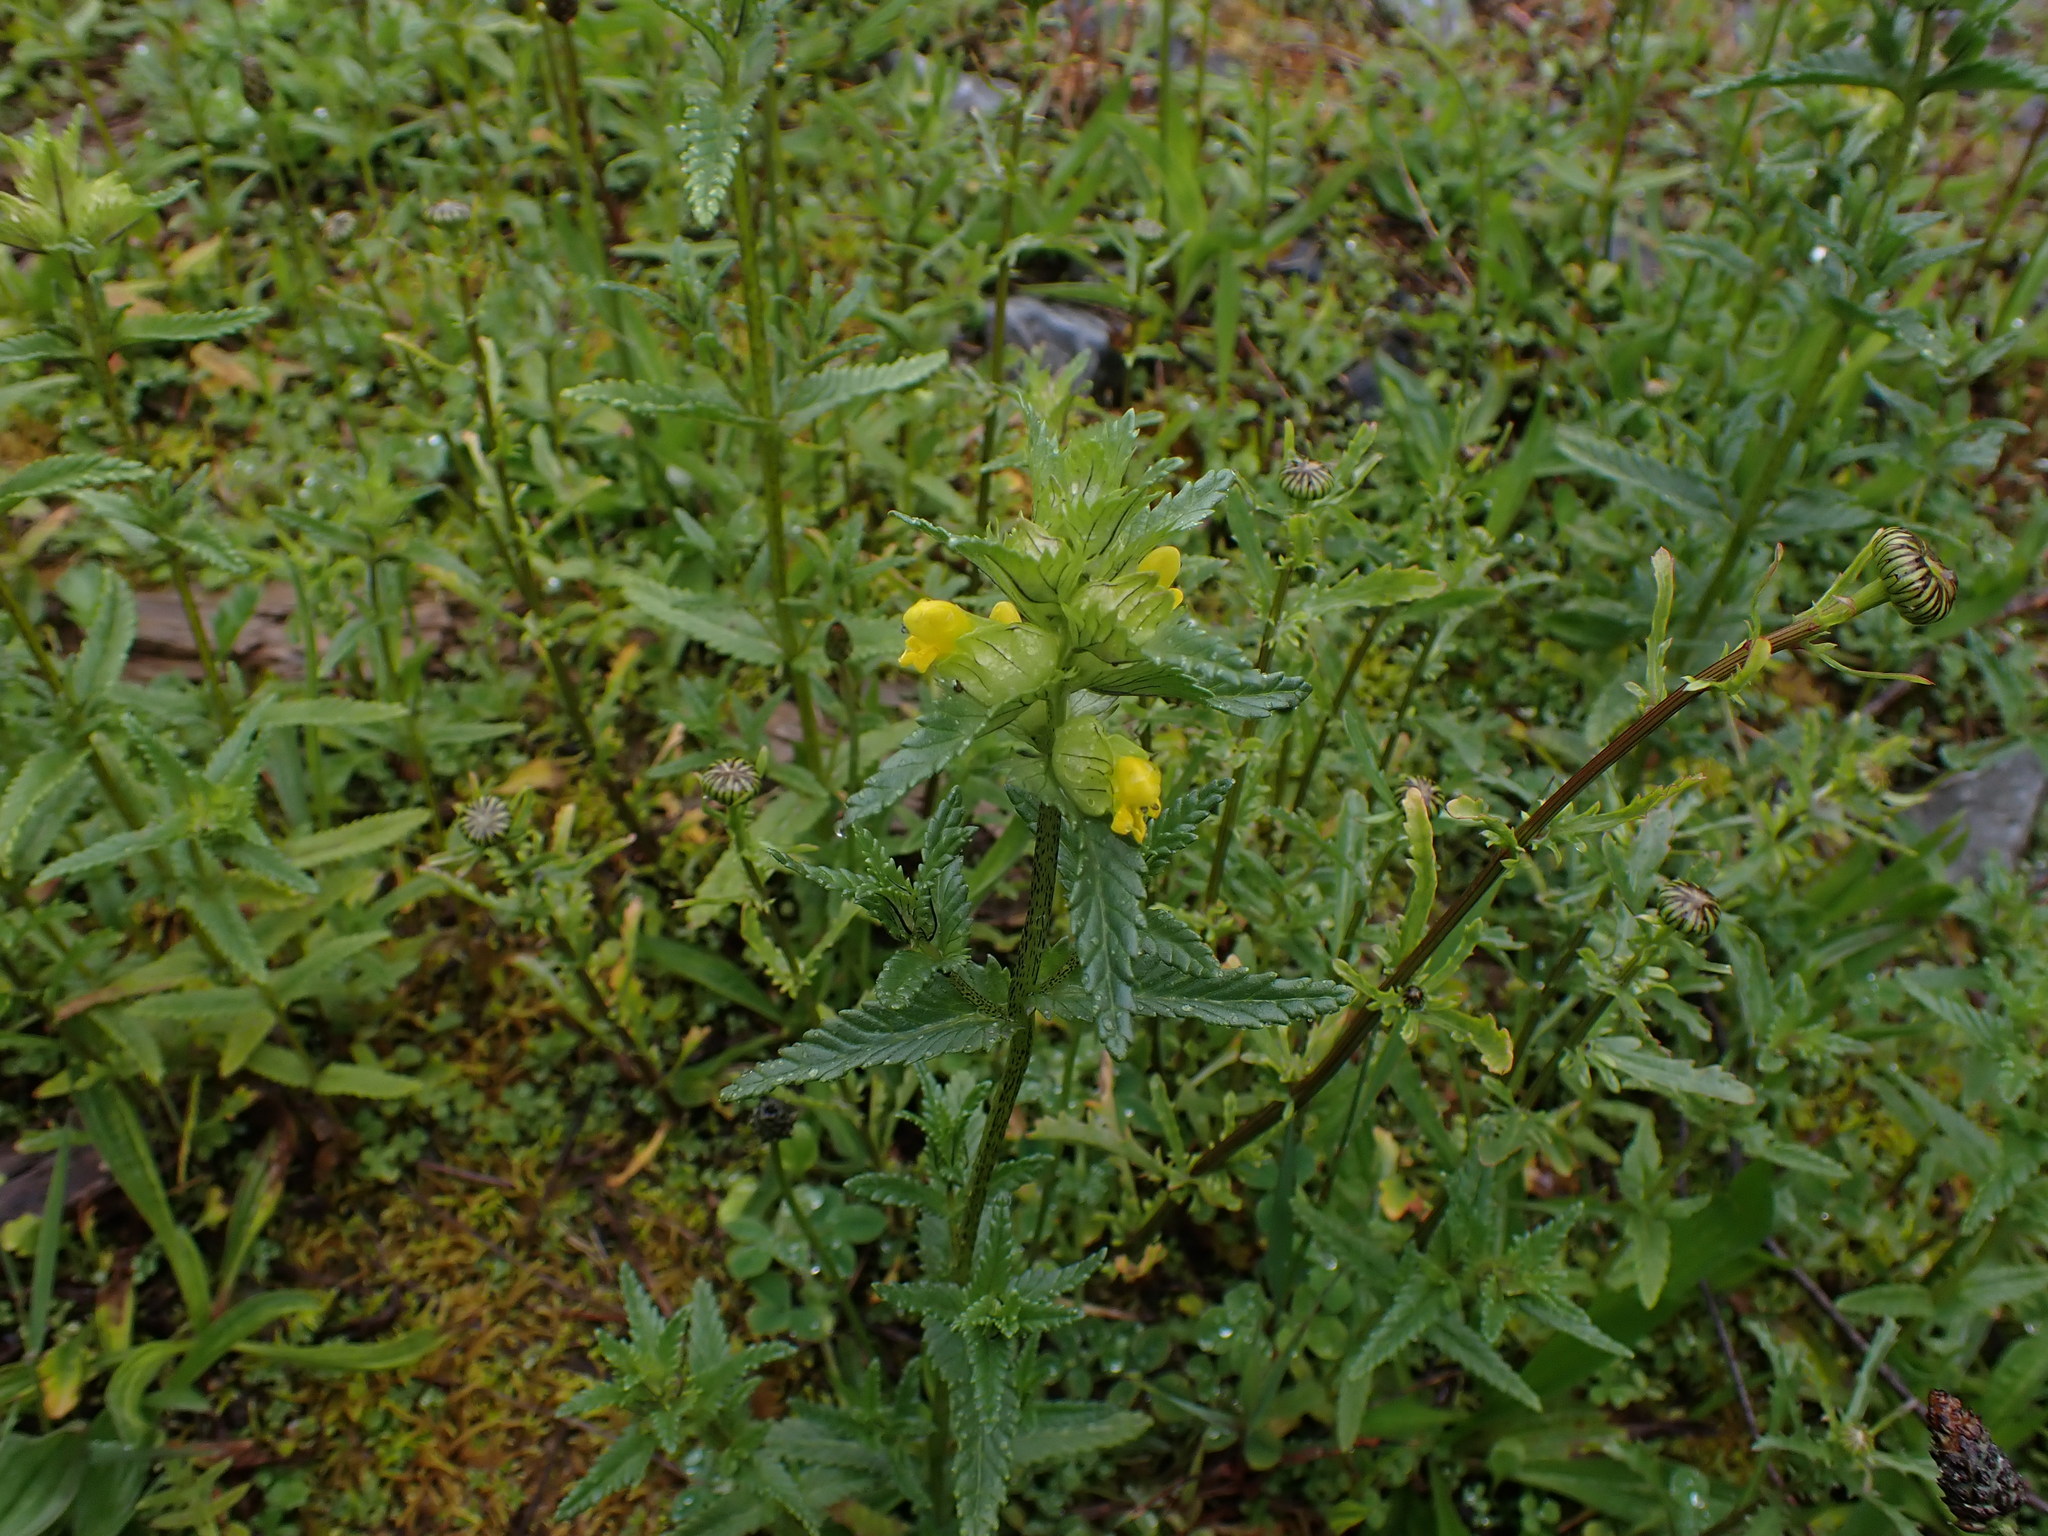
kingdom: Plantae
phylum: Tracheophyta
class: Magnoliopsida
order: Lamiales
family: Orobanchaceae
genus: Rhinanthus
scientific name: Rhinanthus minor
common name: Yellow-rattle
